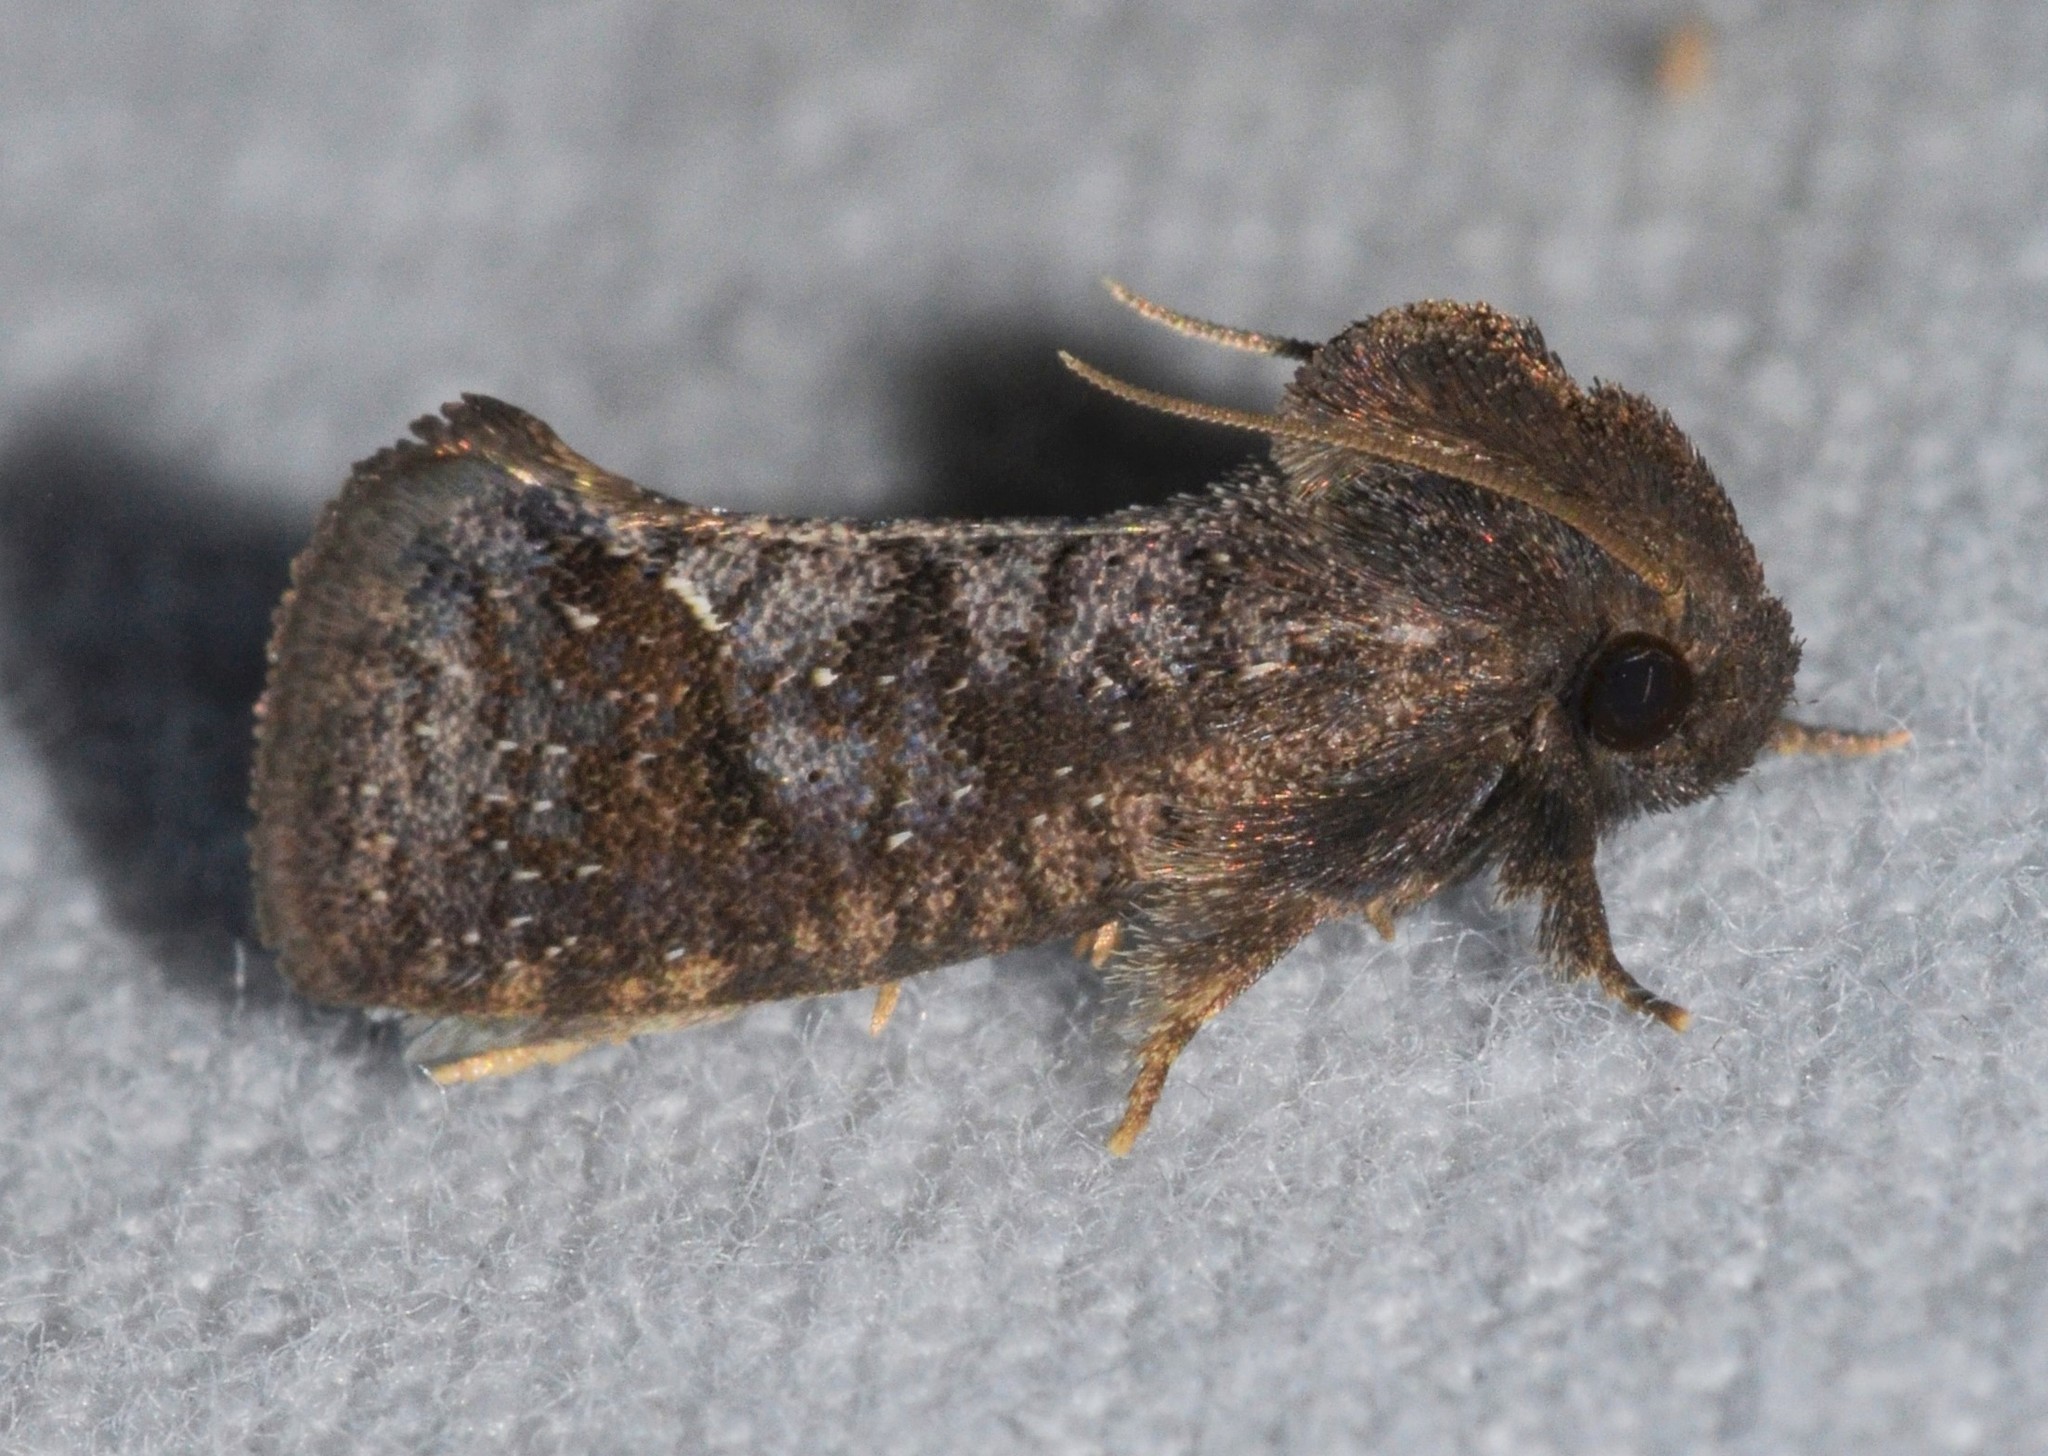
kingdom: Animalia
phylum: Arthropoda
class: Insecta
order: Lepidoptera
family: Tineidae
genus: Acrolophus
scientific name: Acrolophus texanella
